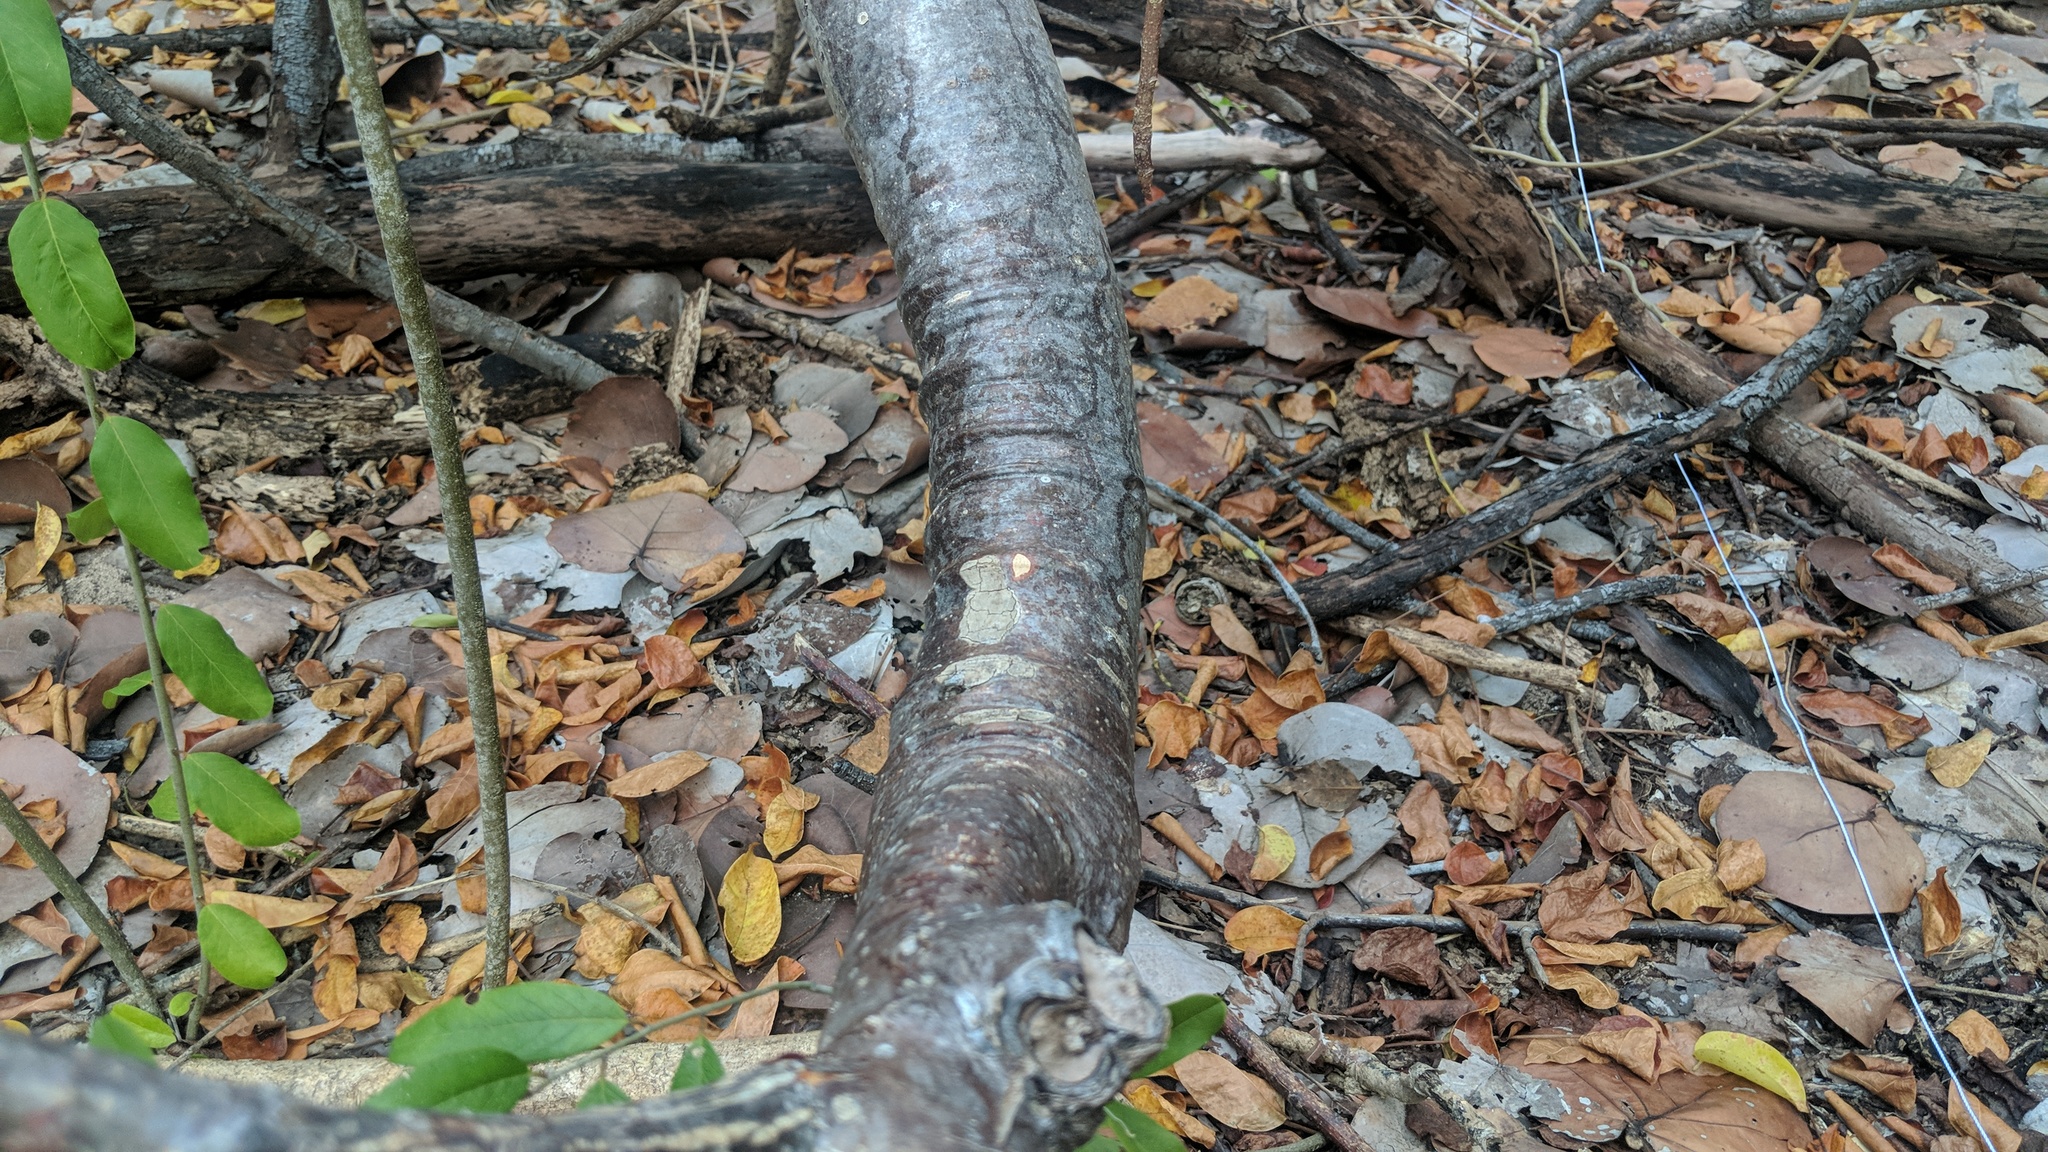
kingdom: Plantae
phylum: Tracheophyta
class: Magnoliopsida
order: Sapindales
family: Burseraceae
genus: Bursera
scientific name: Bursera simaruba
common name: Turpentine tree
